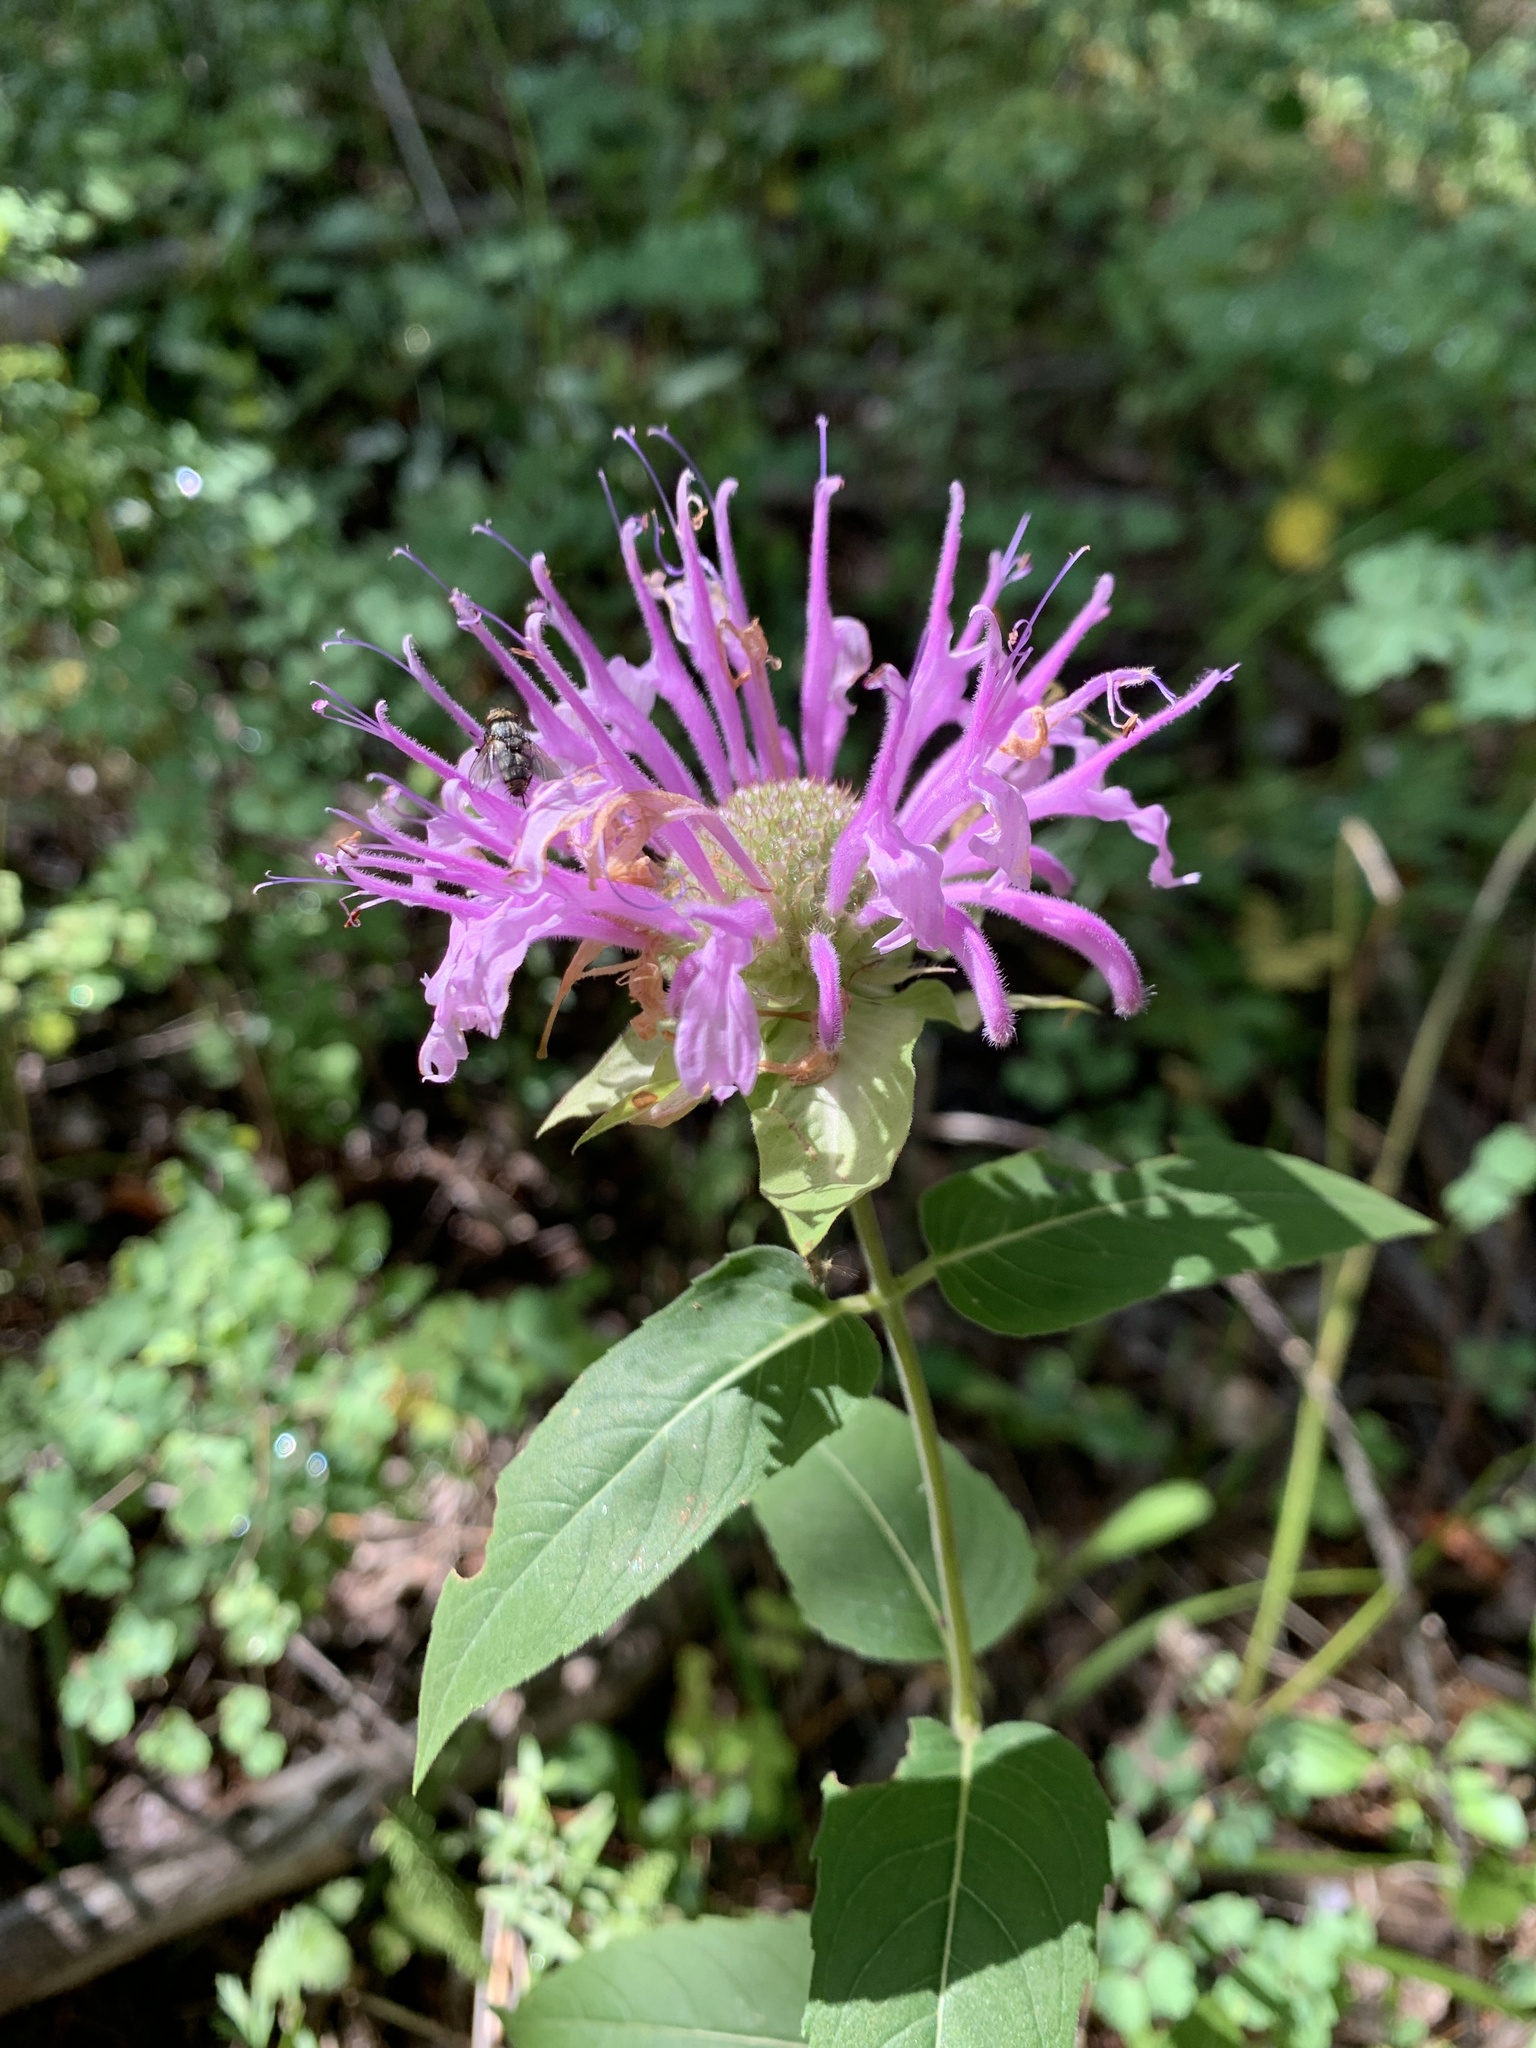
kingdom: Plantae
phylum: Tracheophyta
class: Magnoliopsida
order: Lamiales
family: Lamiaceae
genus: Monarda
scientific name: Monarda fistulosa
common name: Purple beebalm
